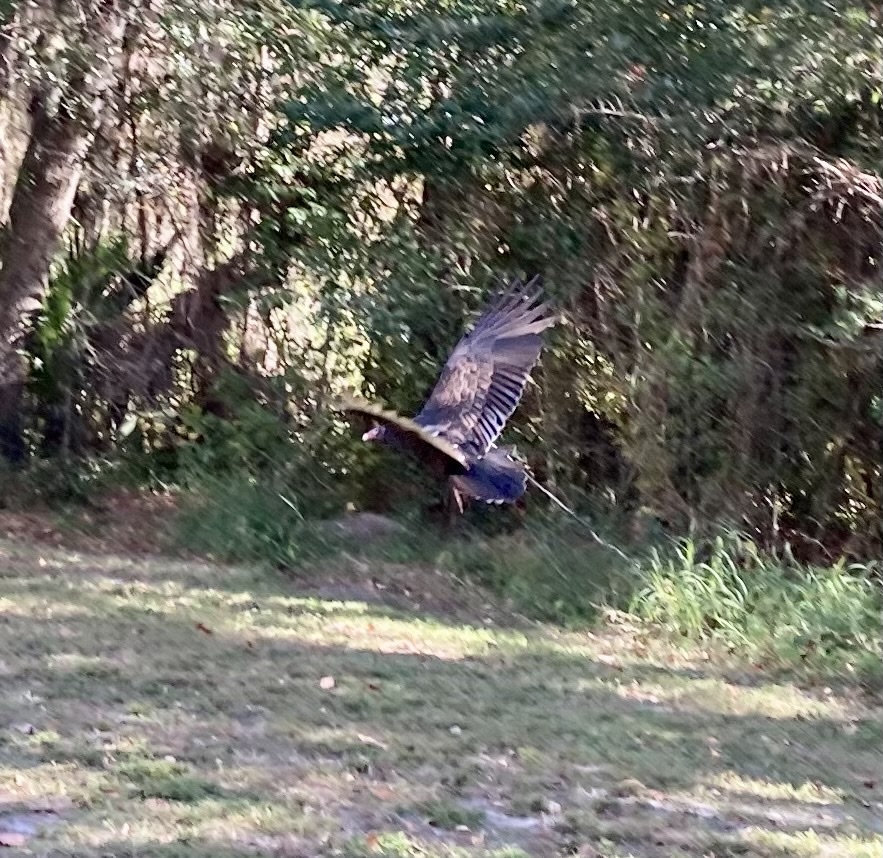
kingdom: Animalia
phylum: Chordata
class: Aves
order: Accipitriformes
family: Cathartidae
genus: Cathartes
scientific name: Cathartes aura
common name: Turkey vulture
